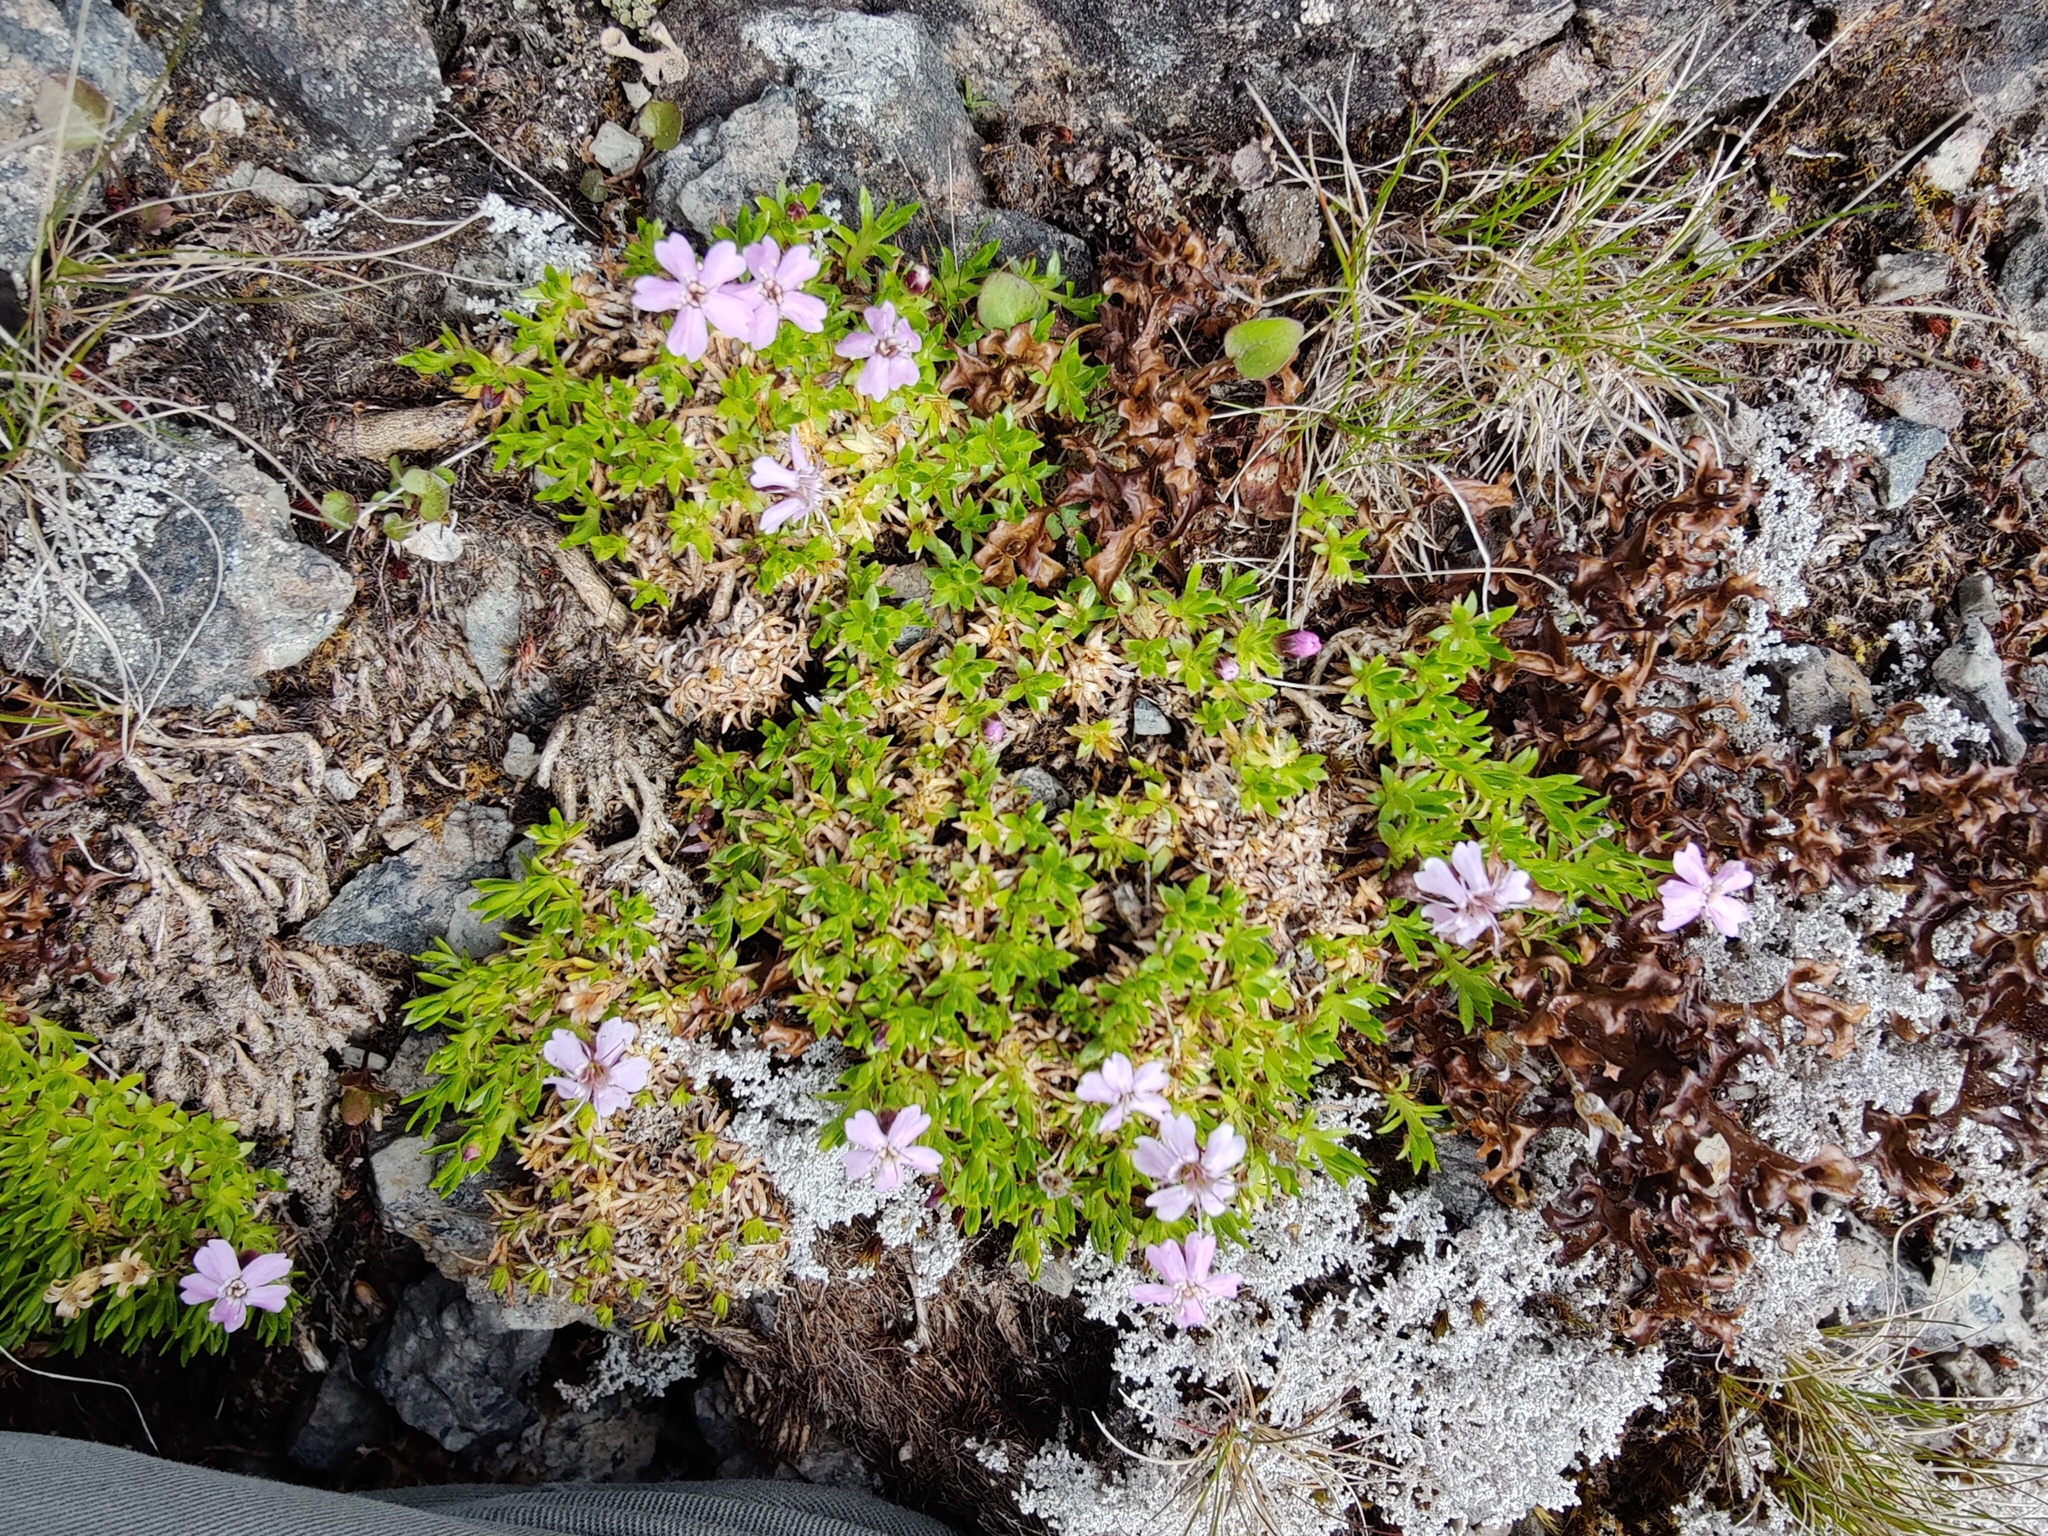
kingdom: Plantae
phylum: Tracheophyta
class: Magnoliopsida
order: Caryophyllales
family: Caryophyllaceae
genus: Silene
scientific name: Silene acaulis
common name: Moss campion
